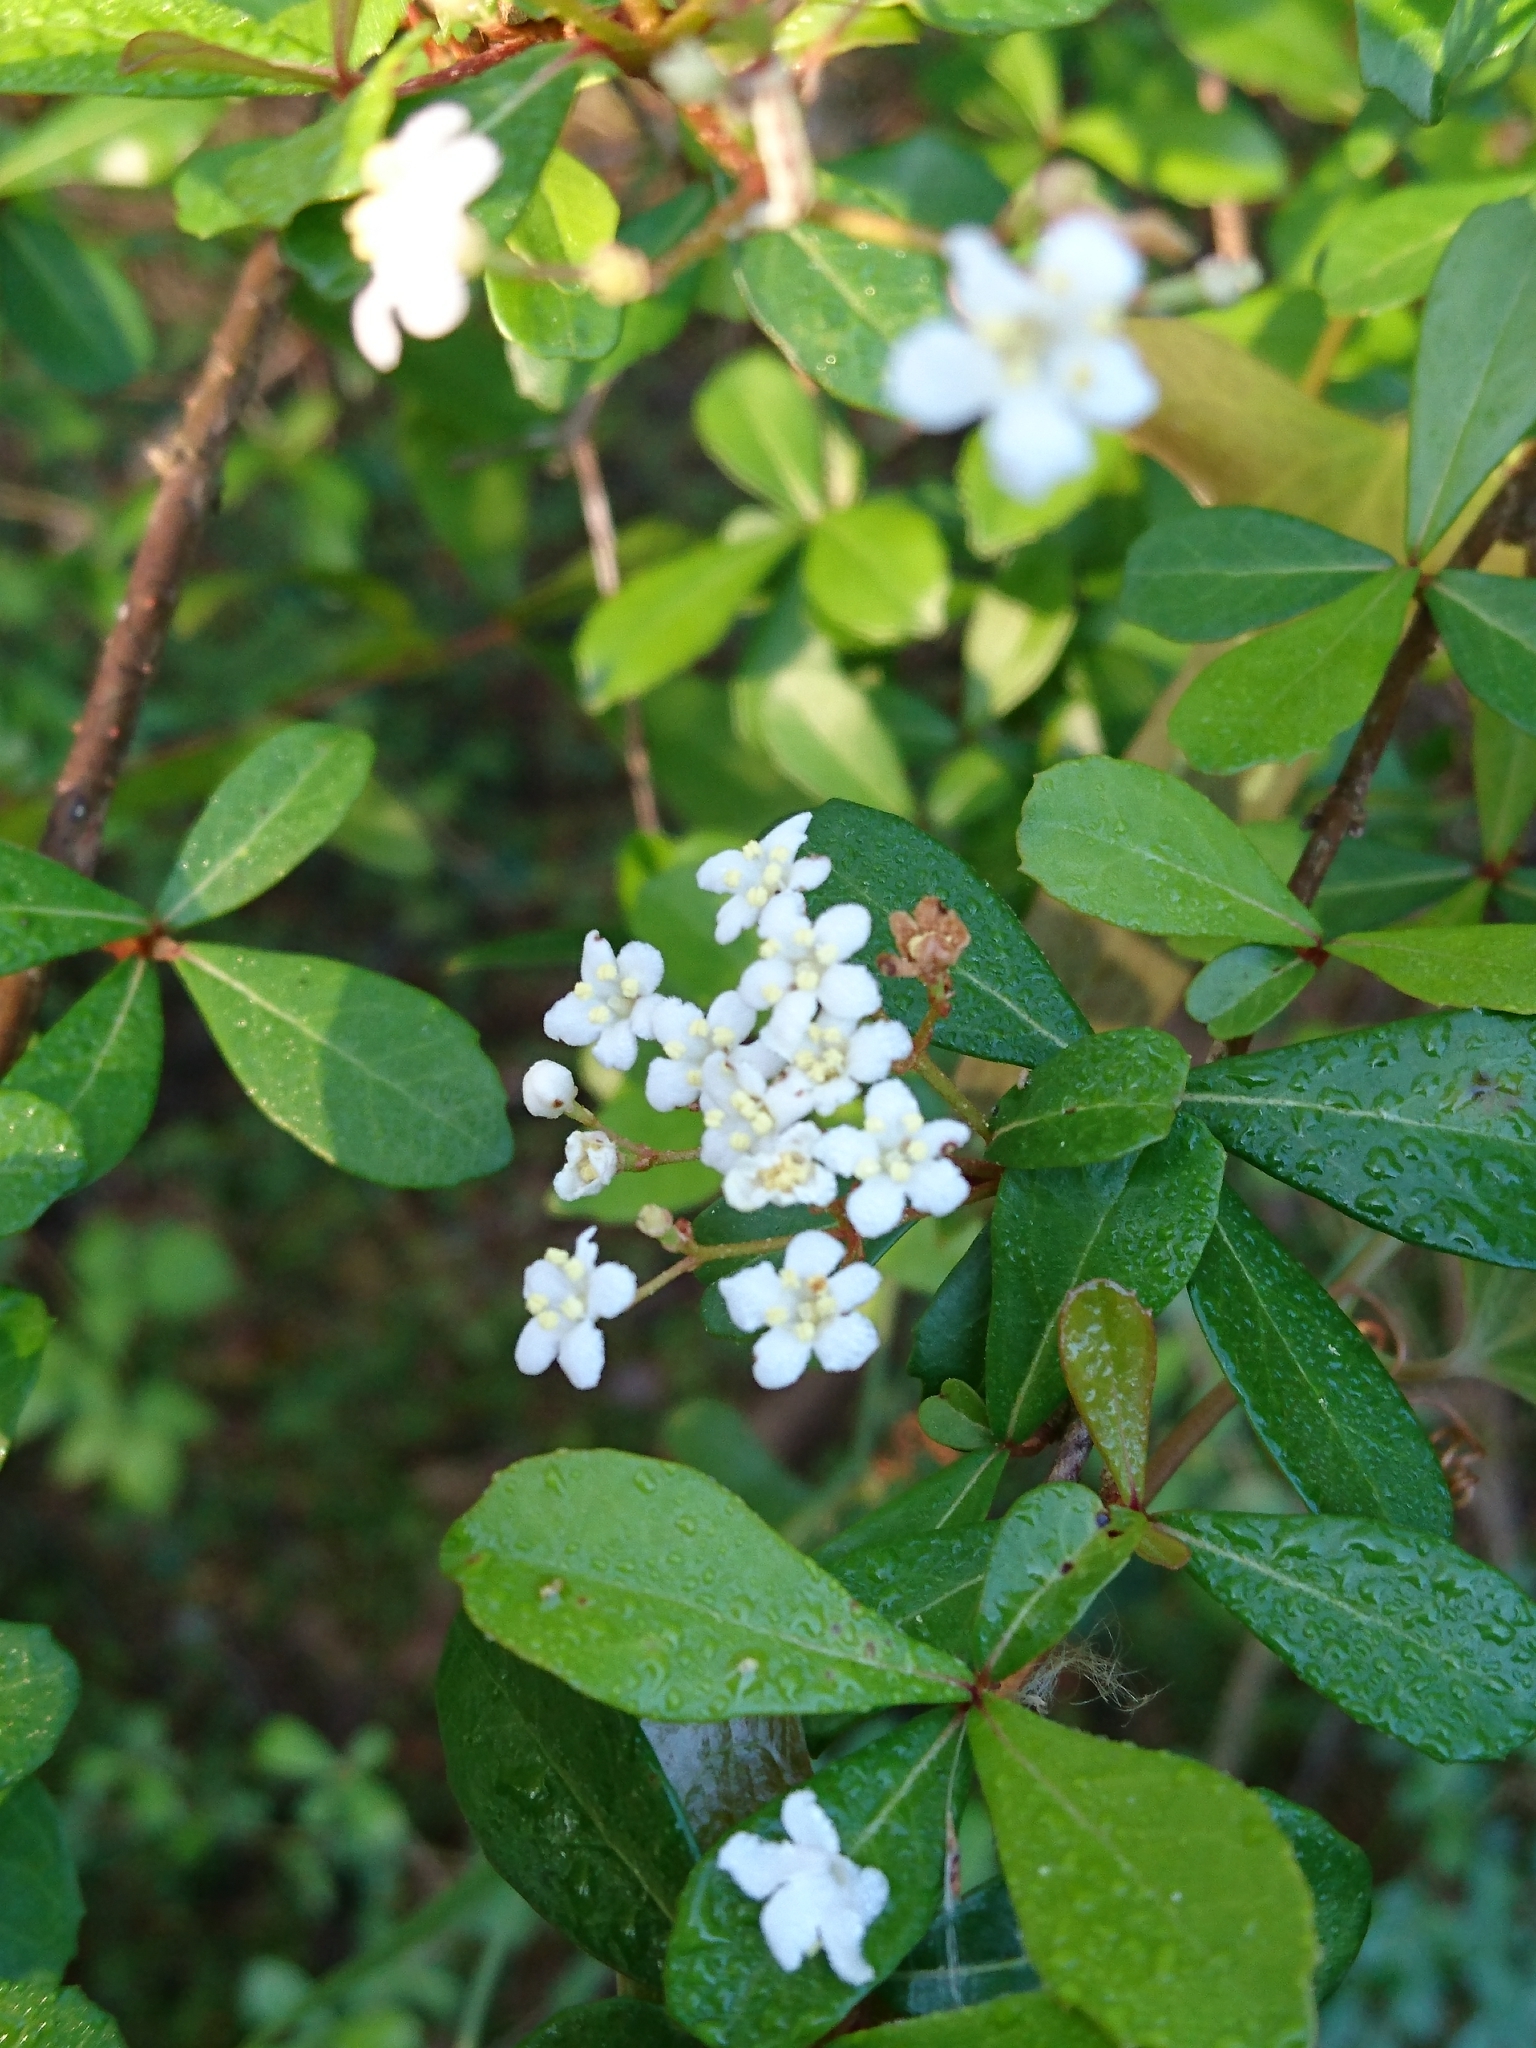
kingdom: Plantae
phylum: Tracheophyta
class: Magnoliopsida
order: Dipsacales
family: Viburnaceae
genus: Viburnum
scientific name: Viburnum obovatum
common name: Walter's viburnum
